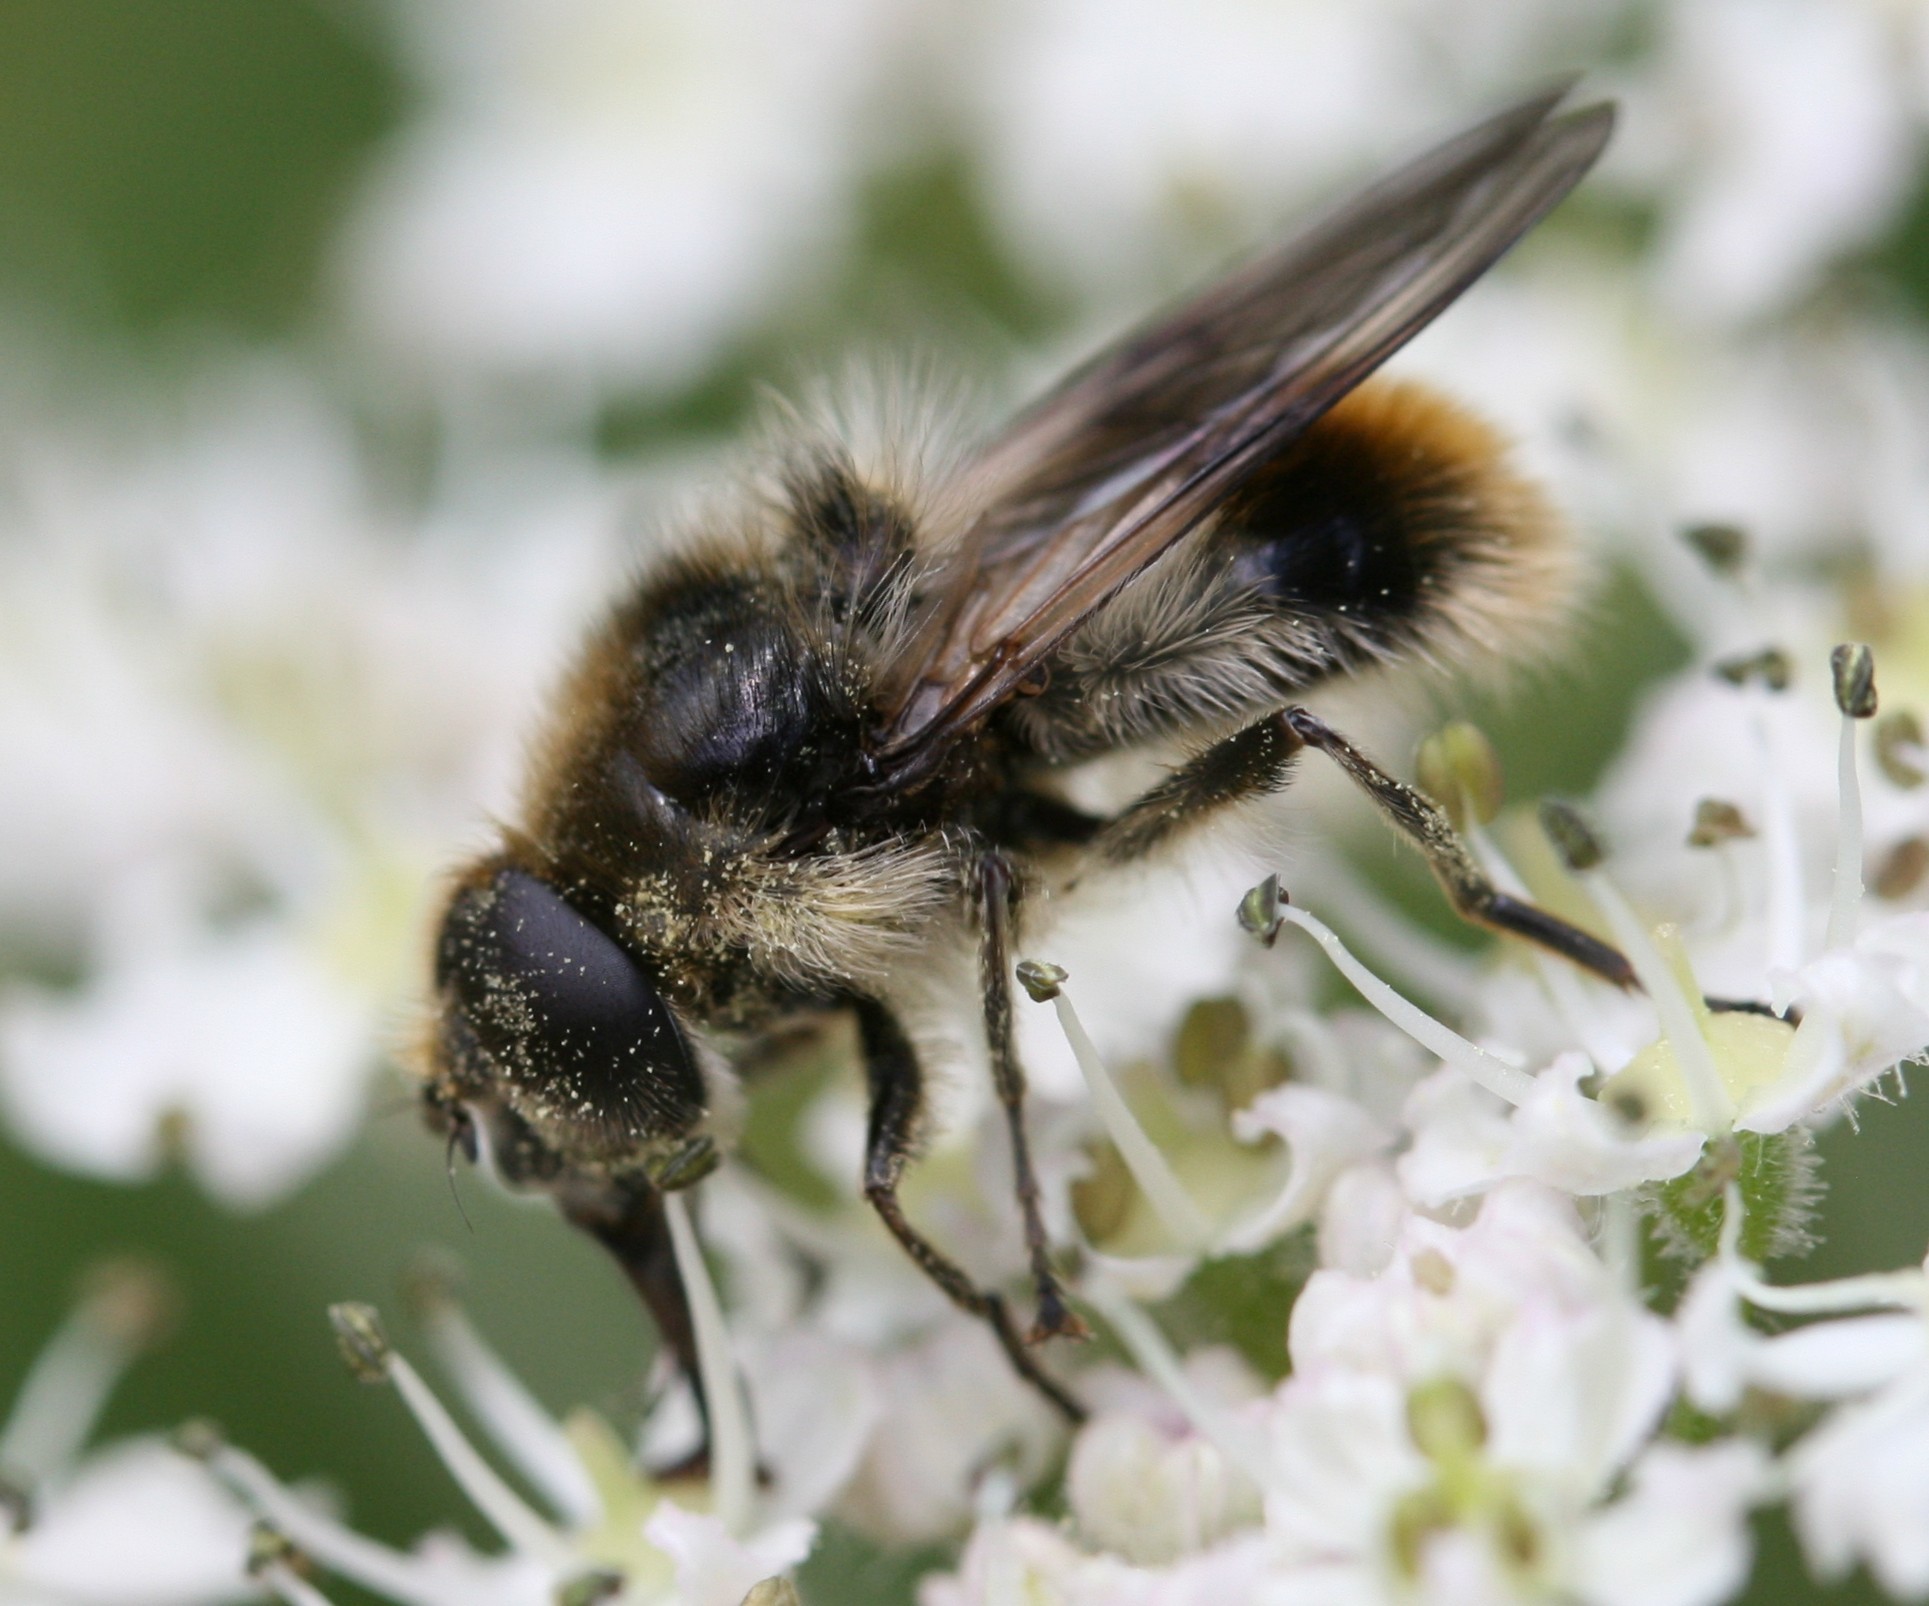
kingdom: Animalia
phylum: Arthropoda
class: Insecta
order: Diptera
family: Syrphidae
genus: Cheilosia
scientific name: Cheilosia illustrata
